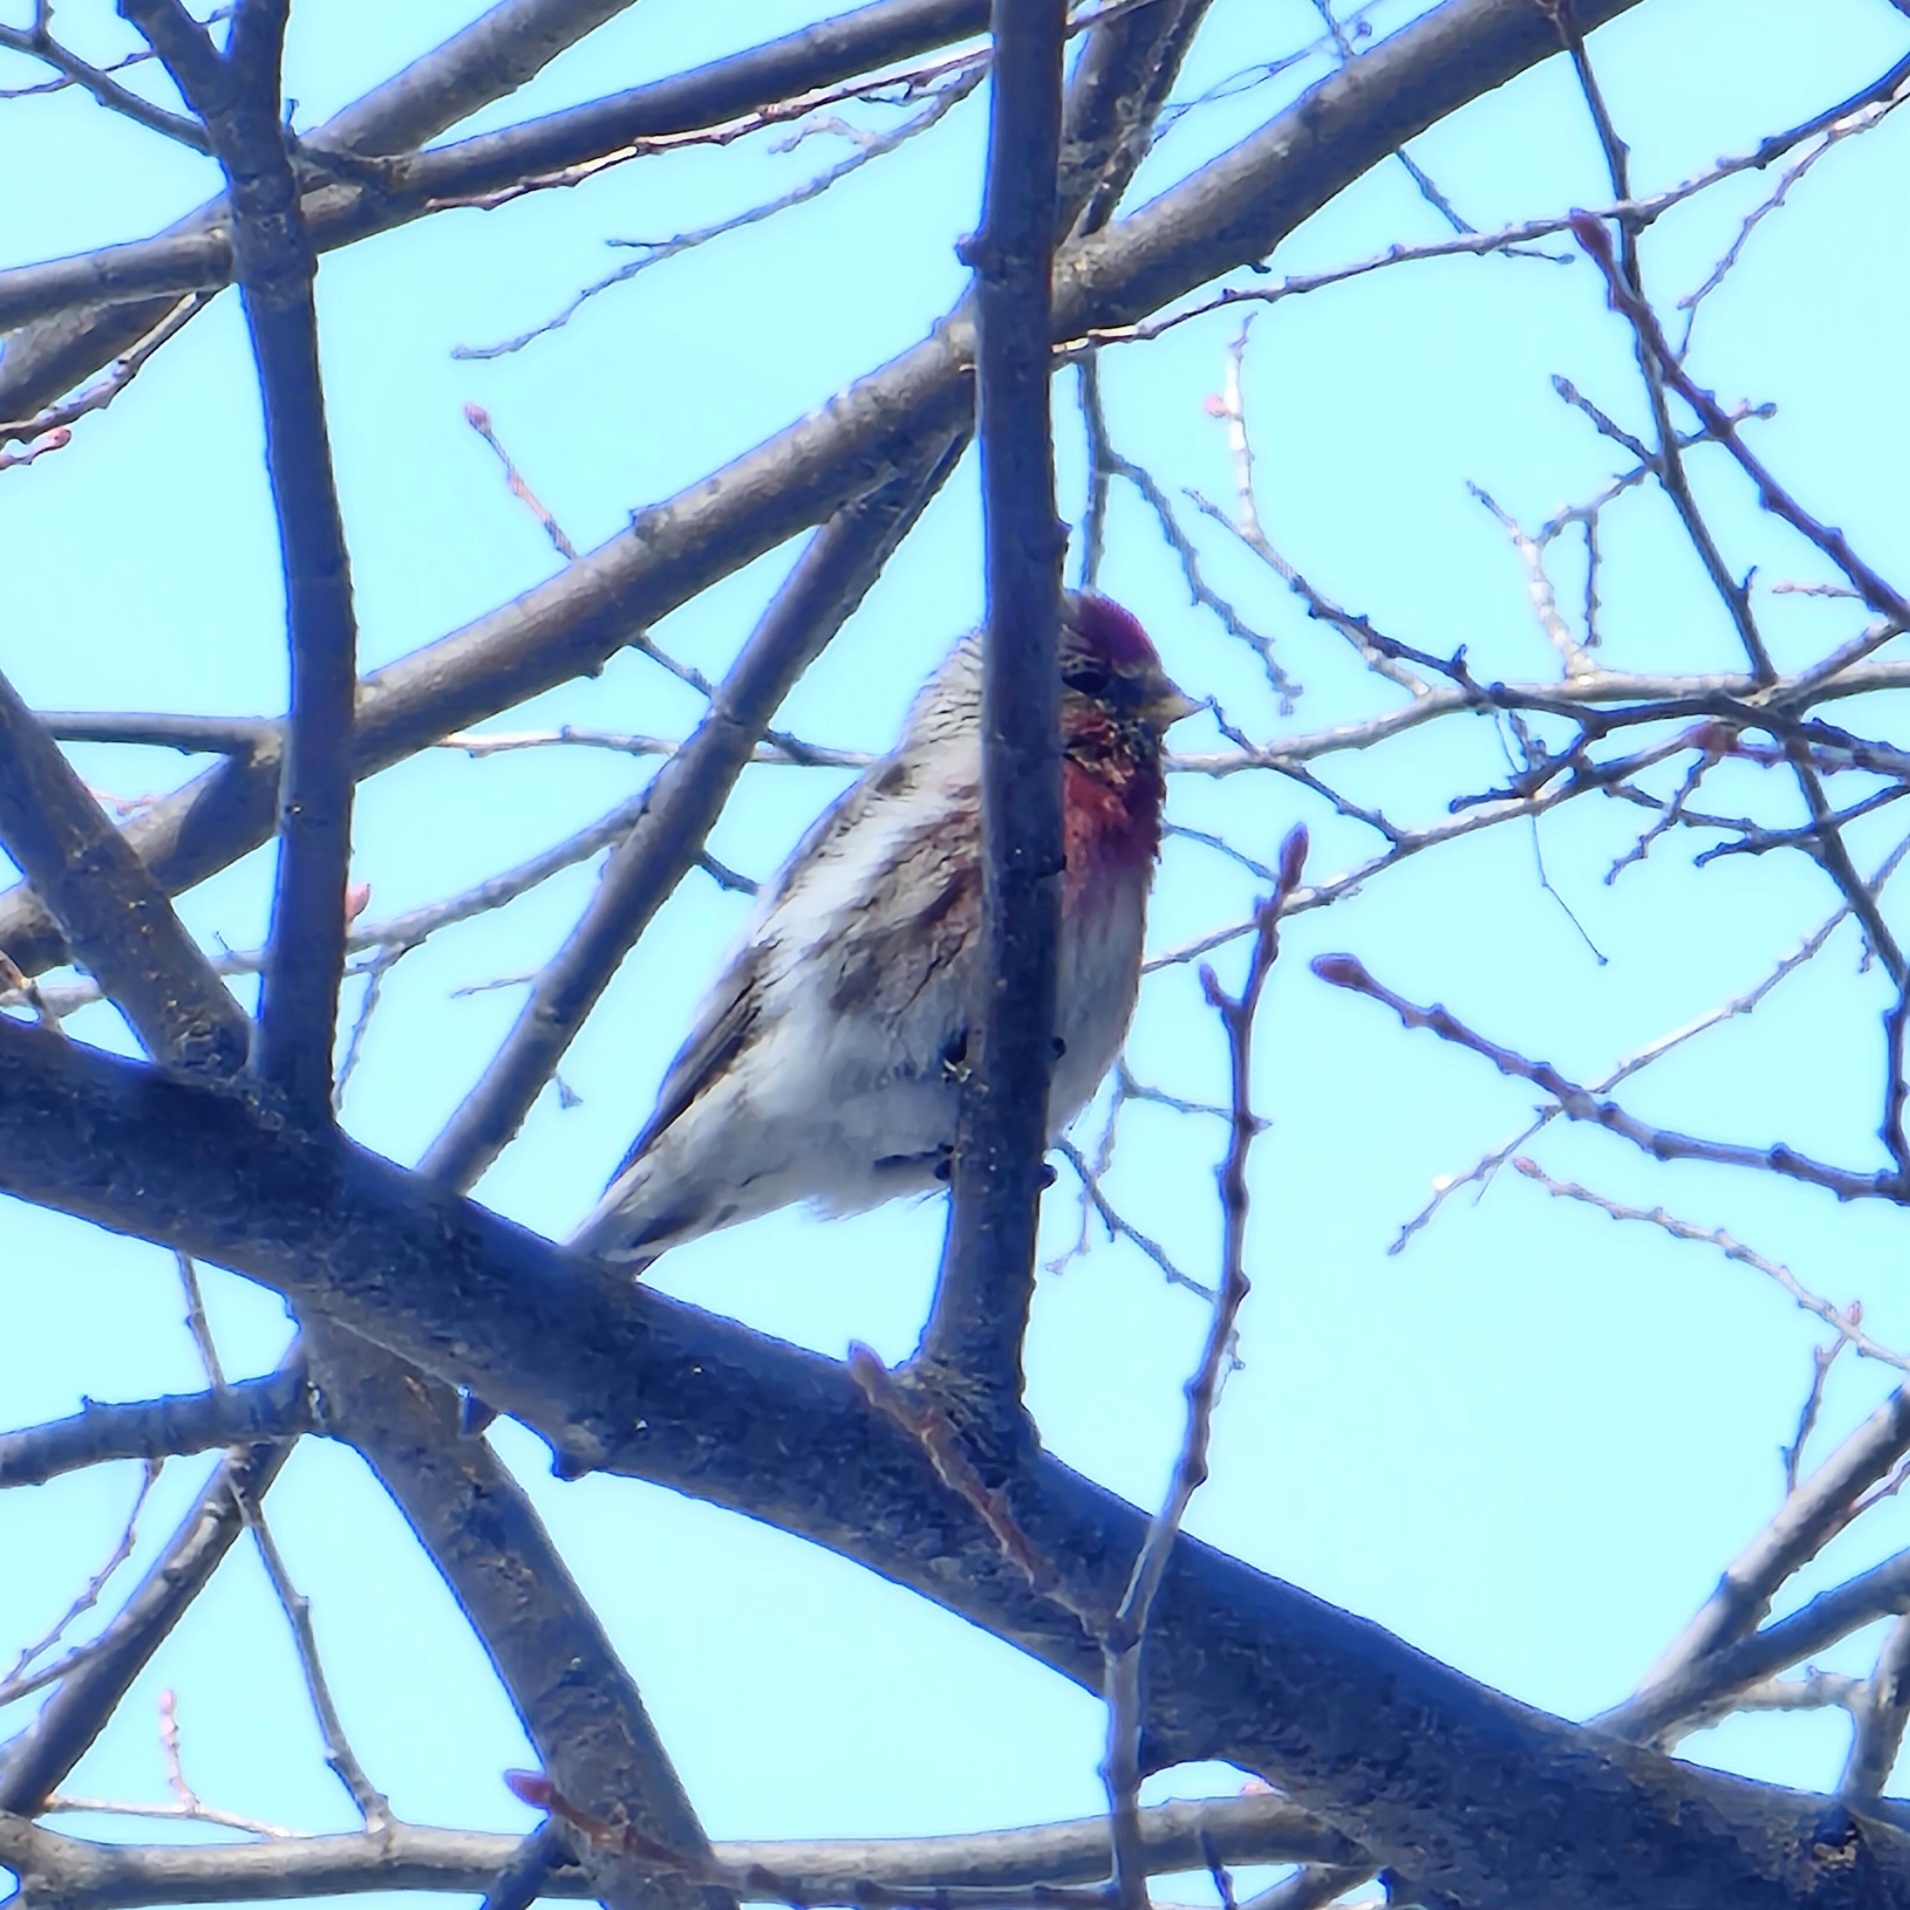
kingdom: Animalia
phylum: Chordata
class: Aves
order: Passeriformes
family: Fringillidae
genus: Acanthis
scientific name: Acanthis flammea
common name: Common redpoll
